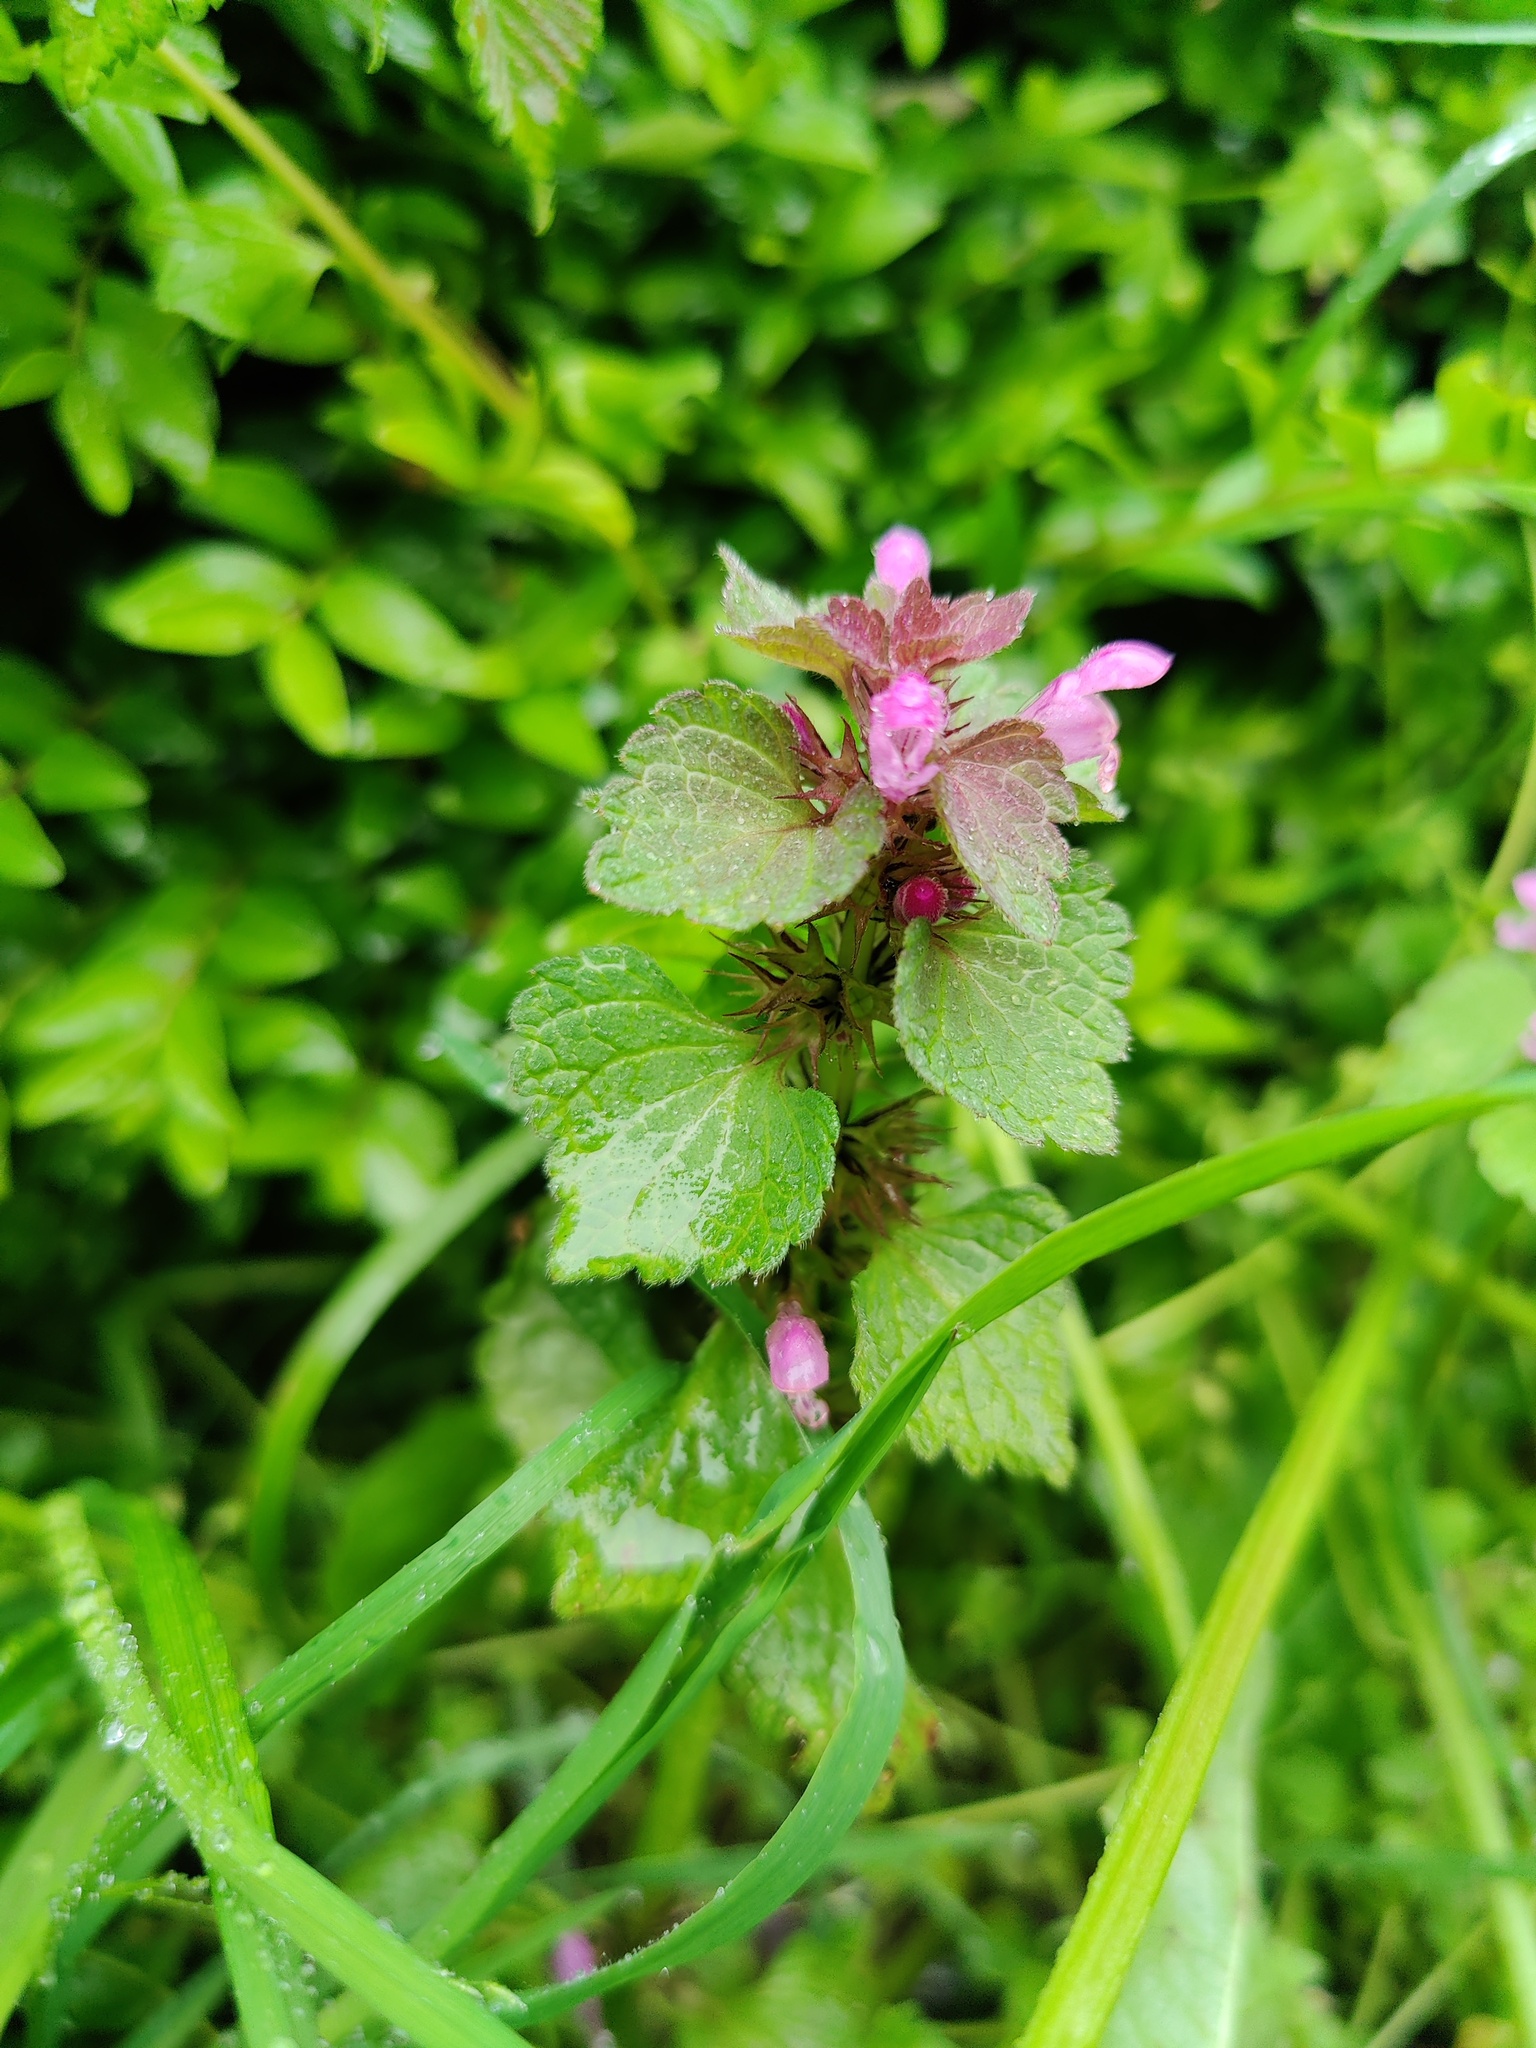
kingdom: Plantae
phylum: Tracheophyta
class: Magnoliopsida
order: Lamiales
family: Lamiaceae
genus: Lamium
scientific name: Lamium purpureum
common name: Red dead-nettle
